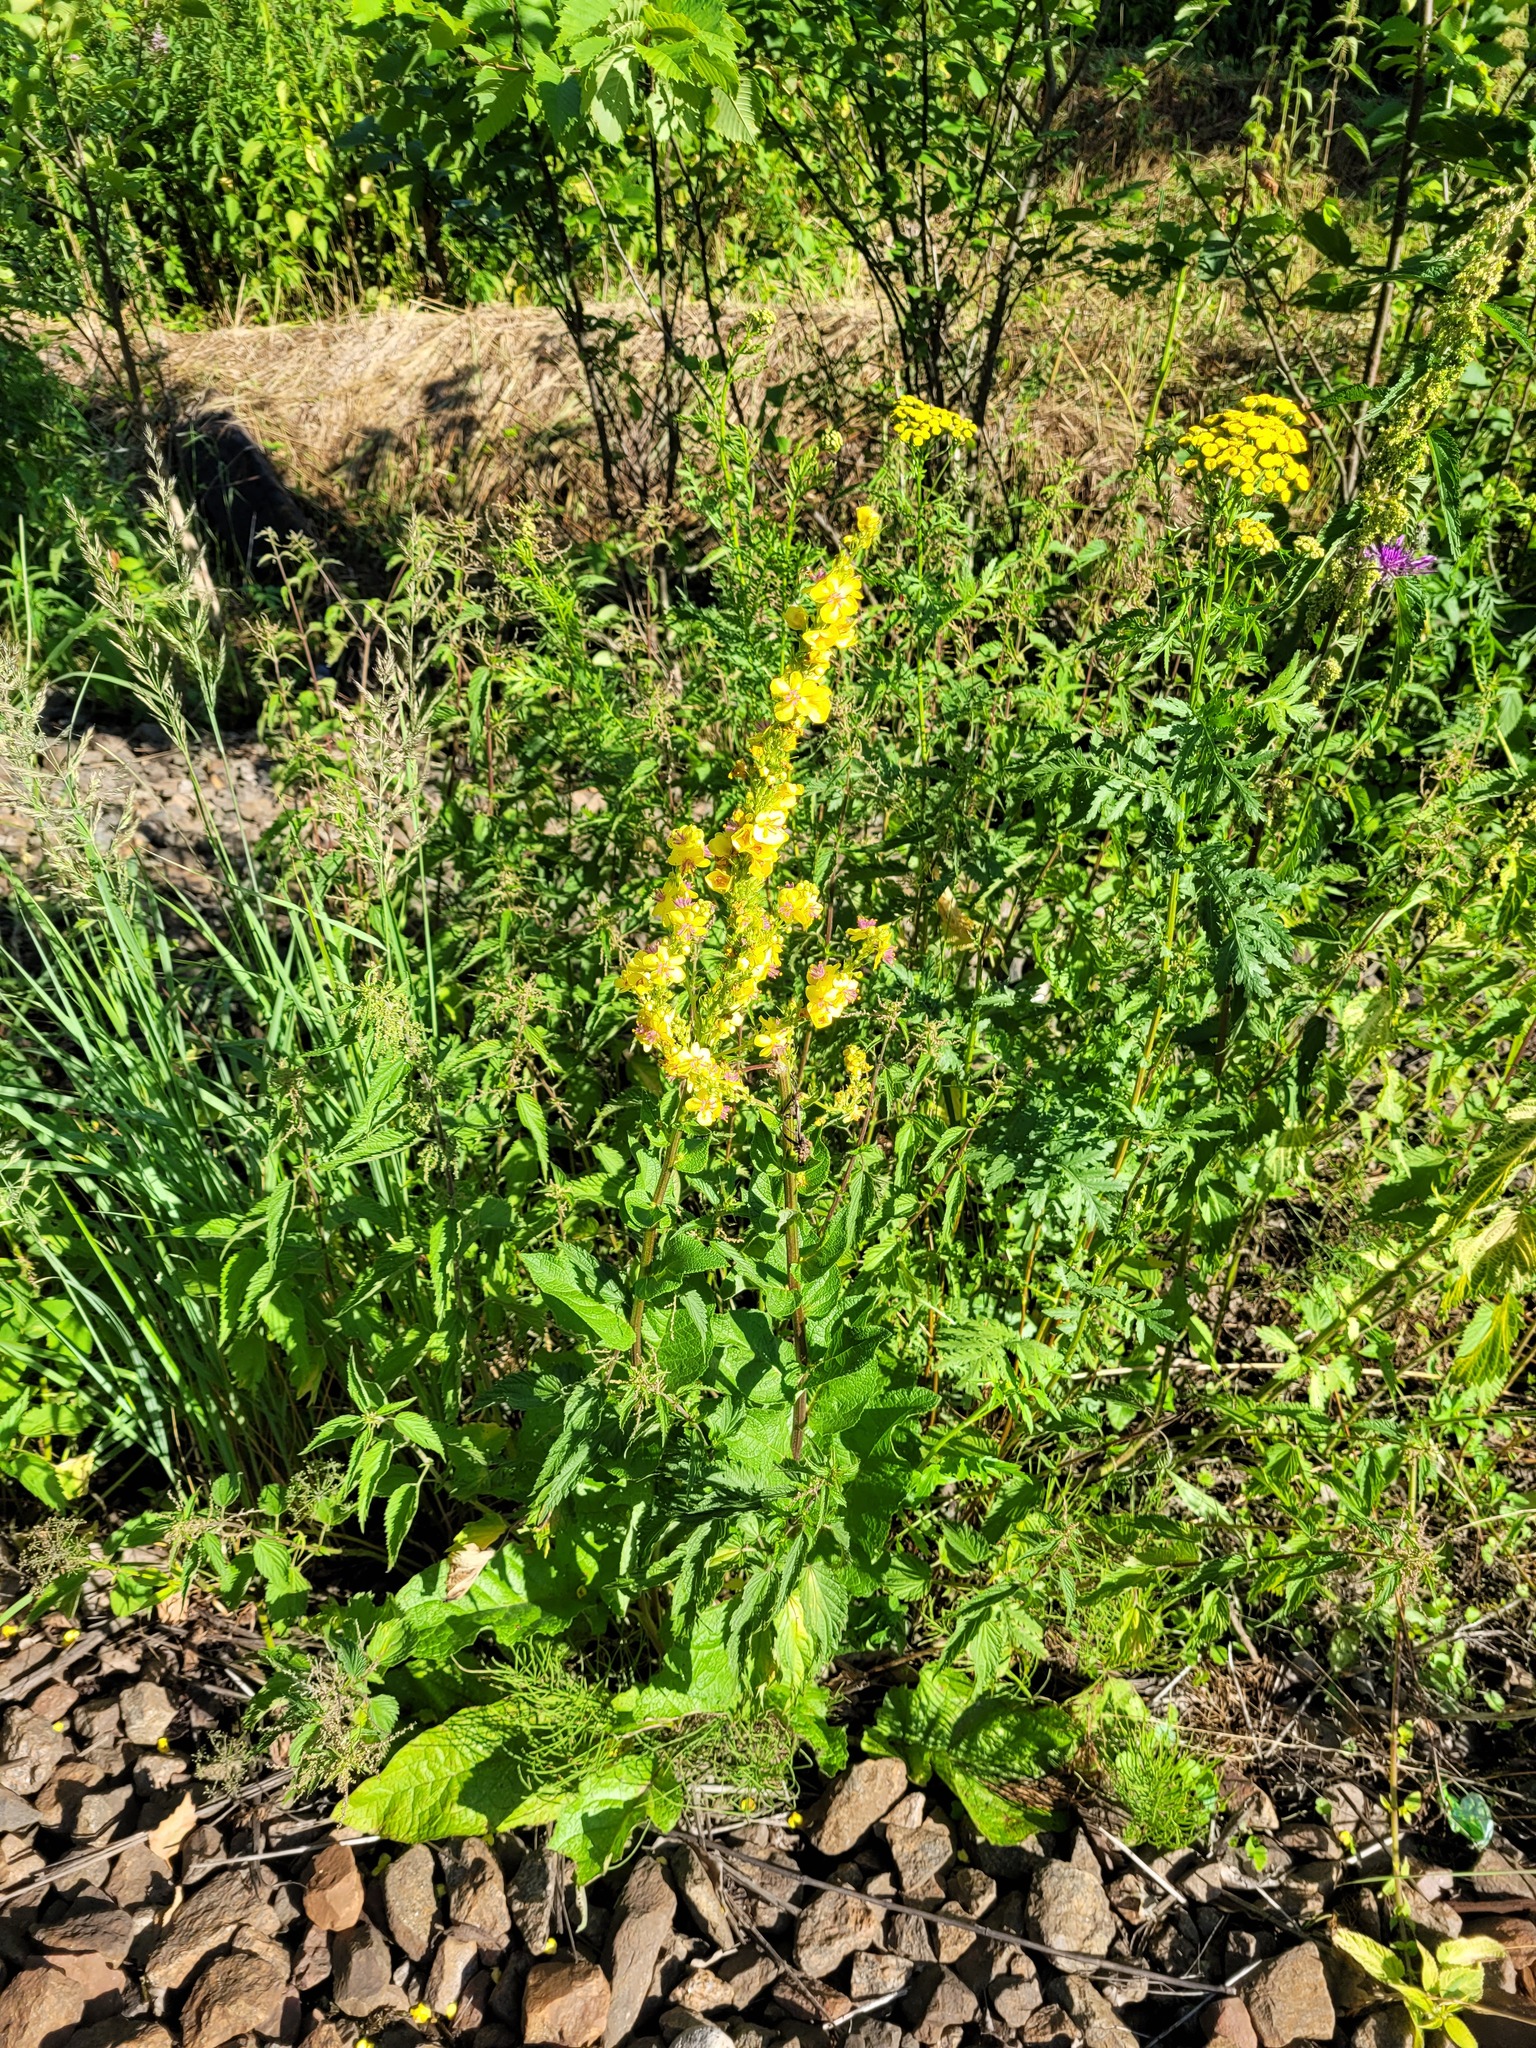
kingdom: Plantae
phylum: Tracheophyta
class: Magnoliopsida
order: Lamiales
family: Scrophulariaceae
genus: Verbascum
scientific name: Verbascum nigrum
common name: Dark mullein
